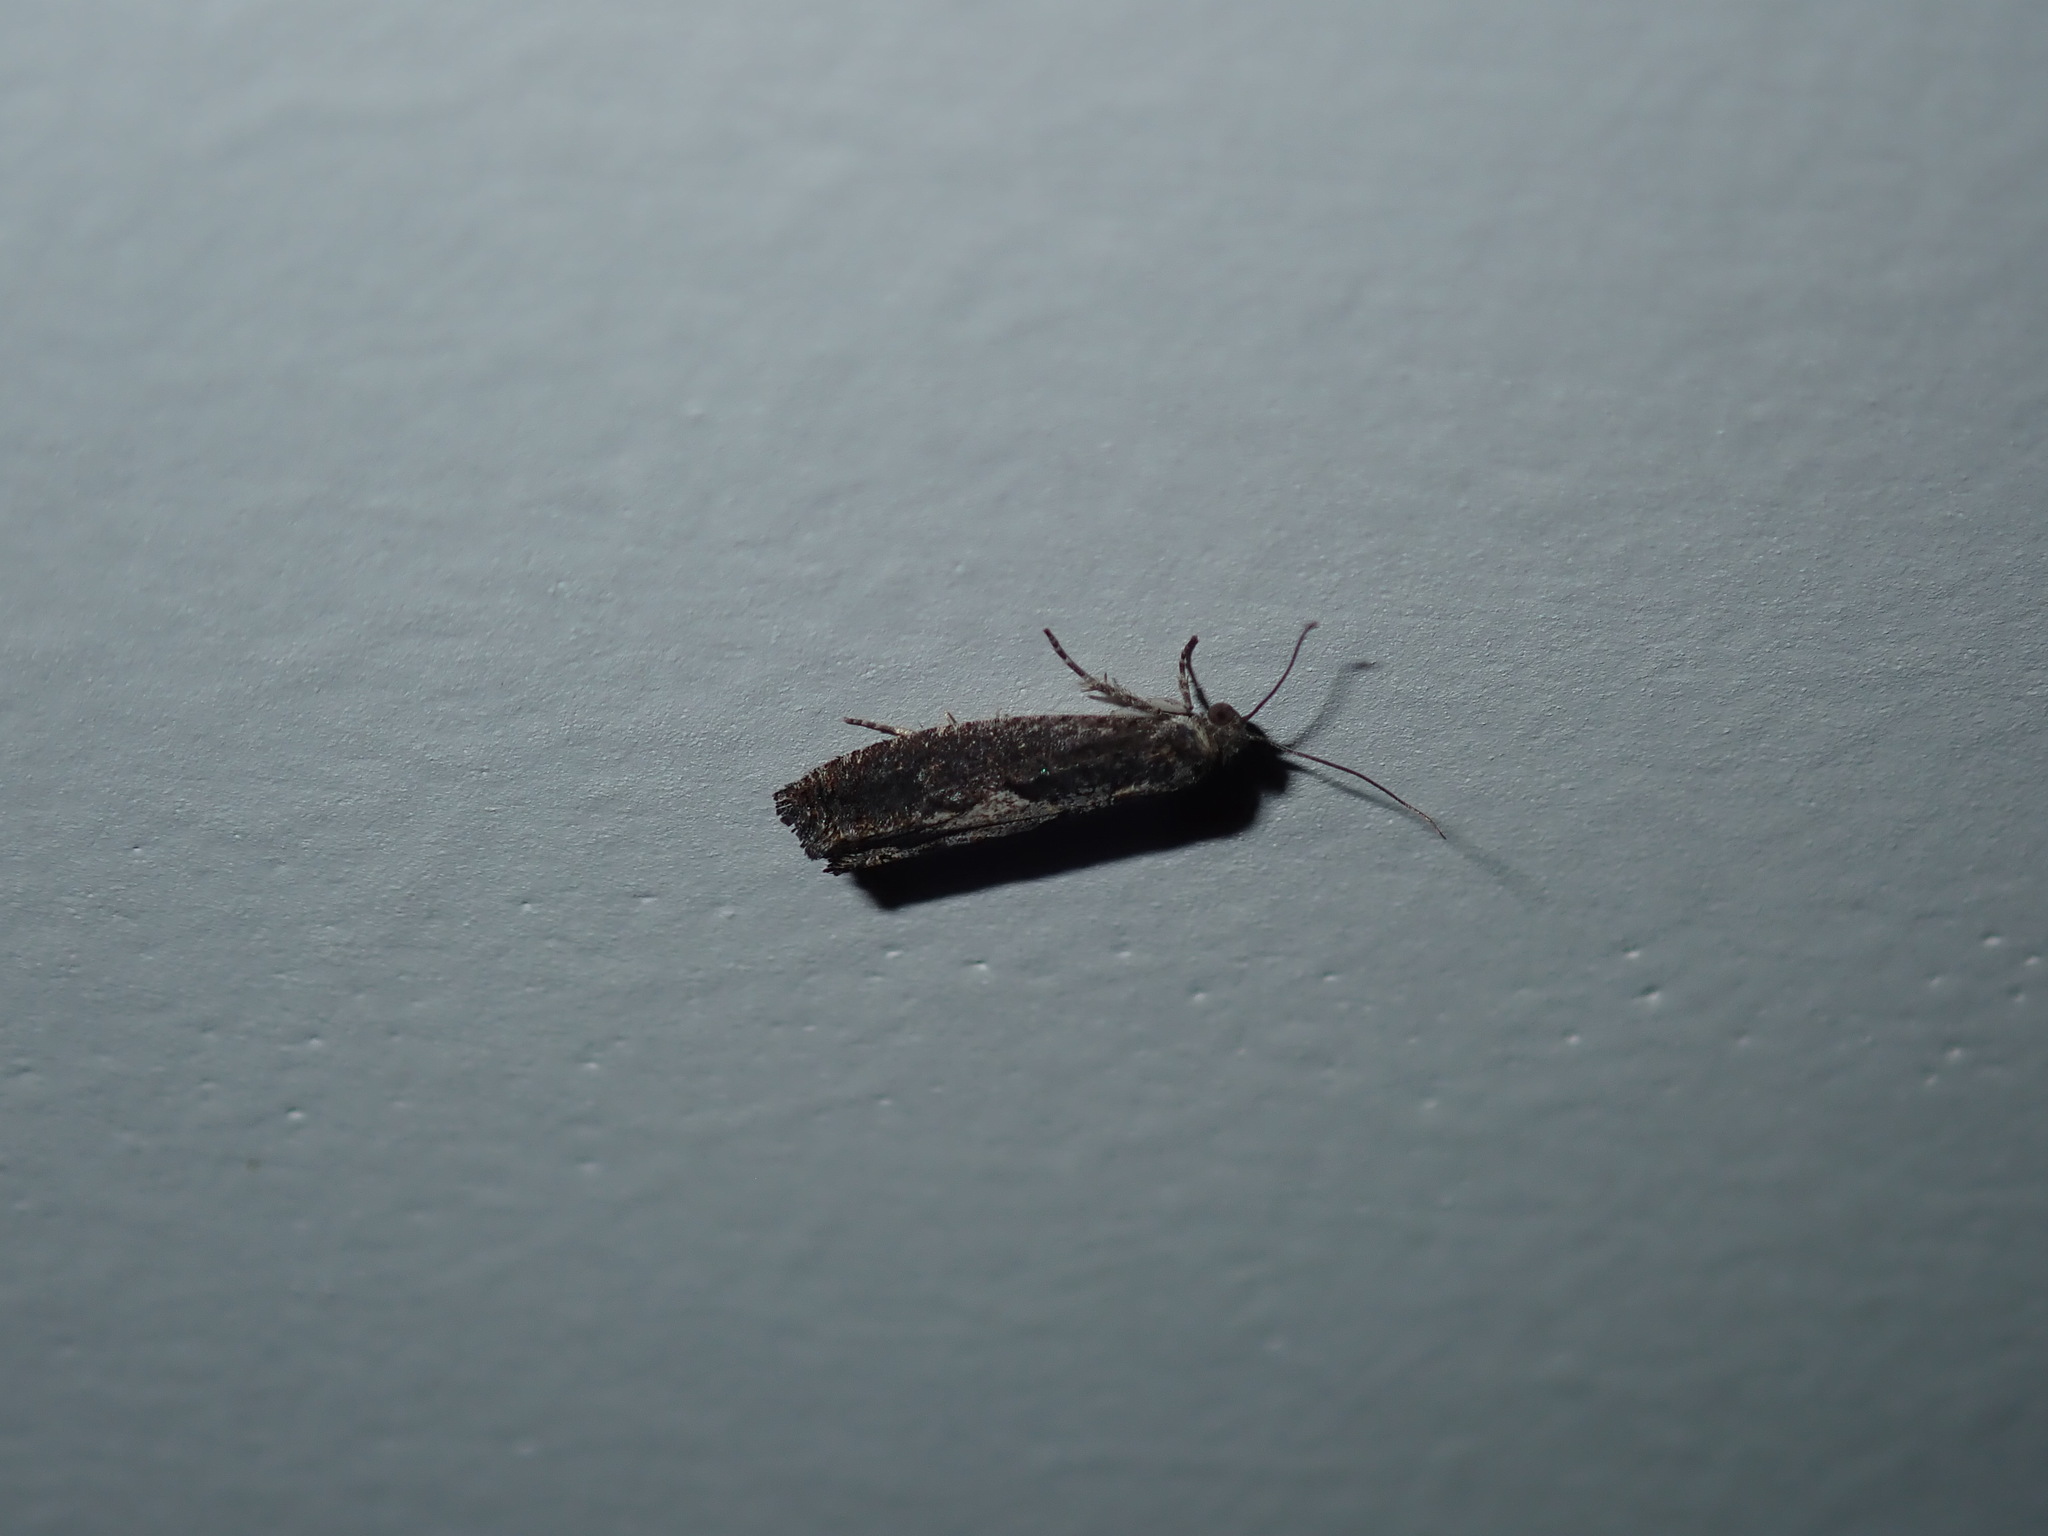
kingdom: Animalia
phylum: Arthropoda
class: Insecta
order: Lepidoptera
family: Tortricidae
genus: Strepsicrates
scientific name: Strepsicrates macropetana
